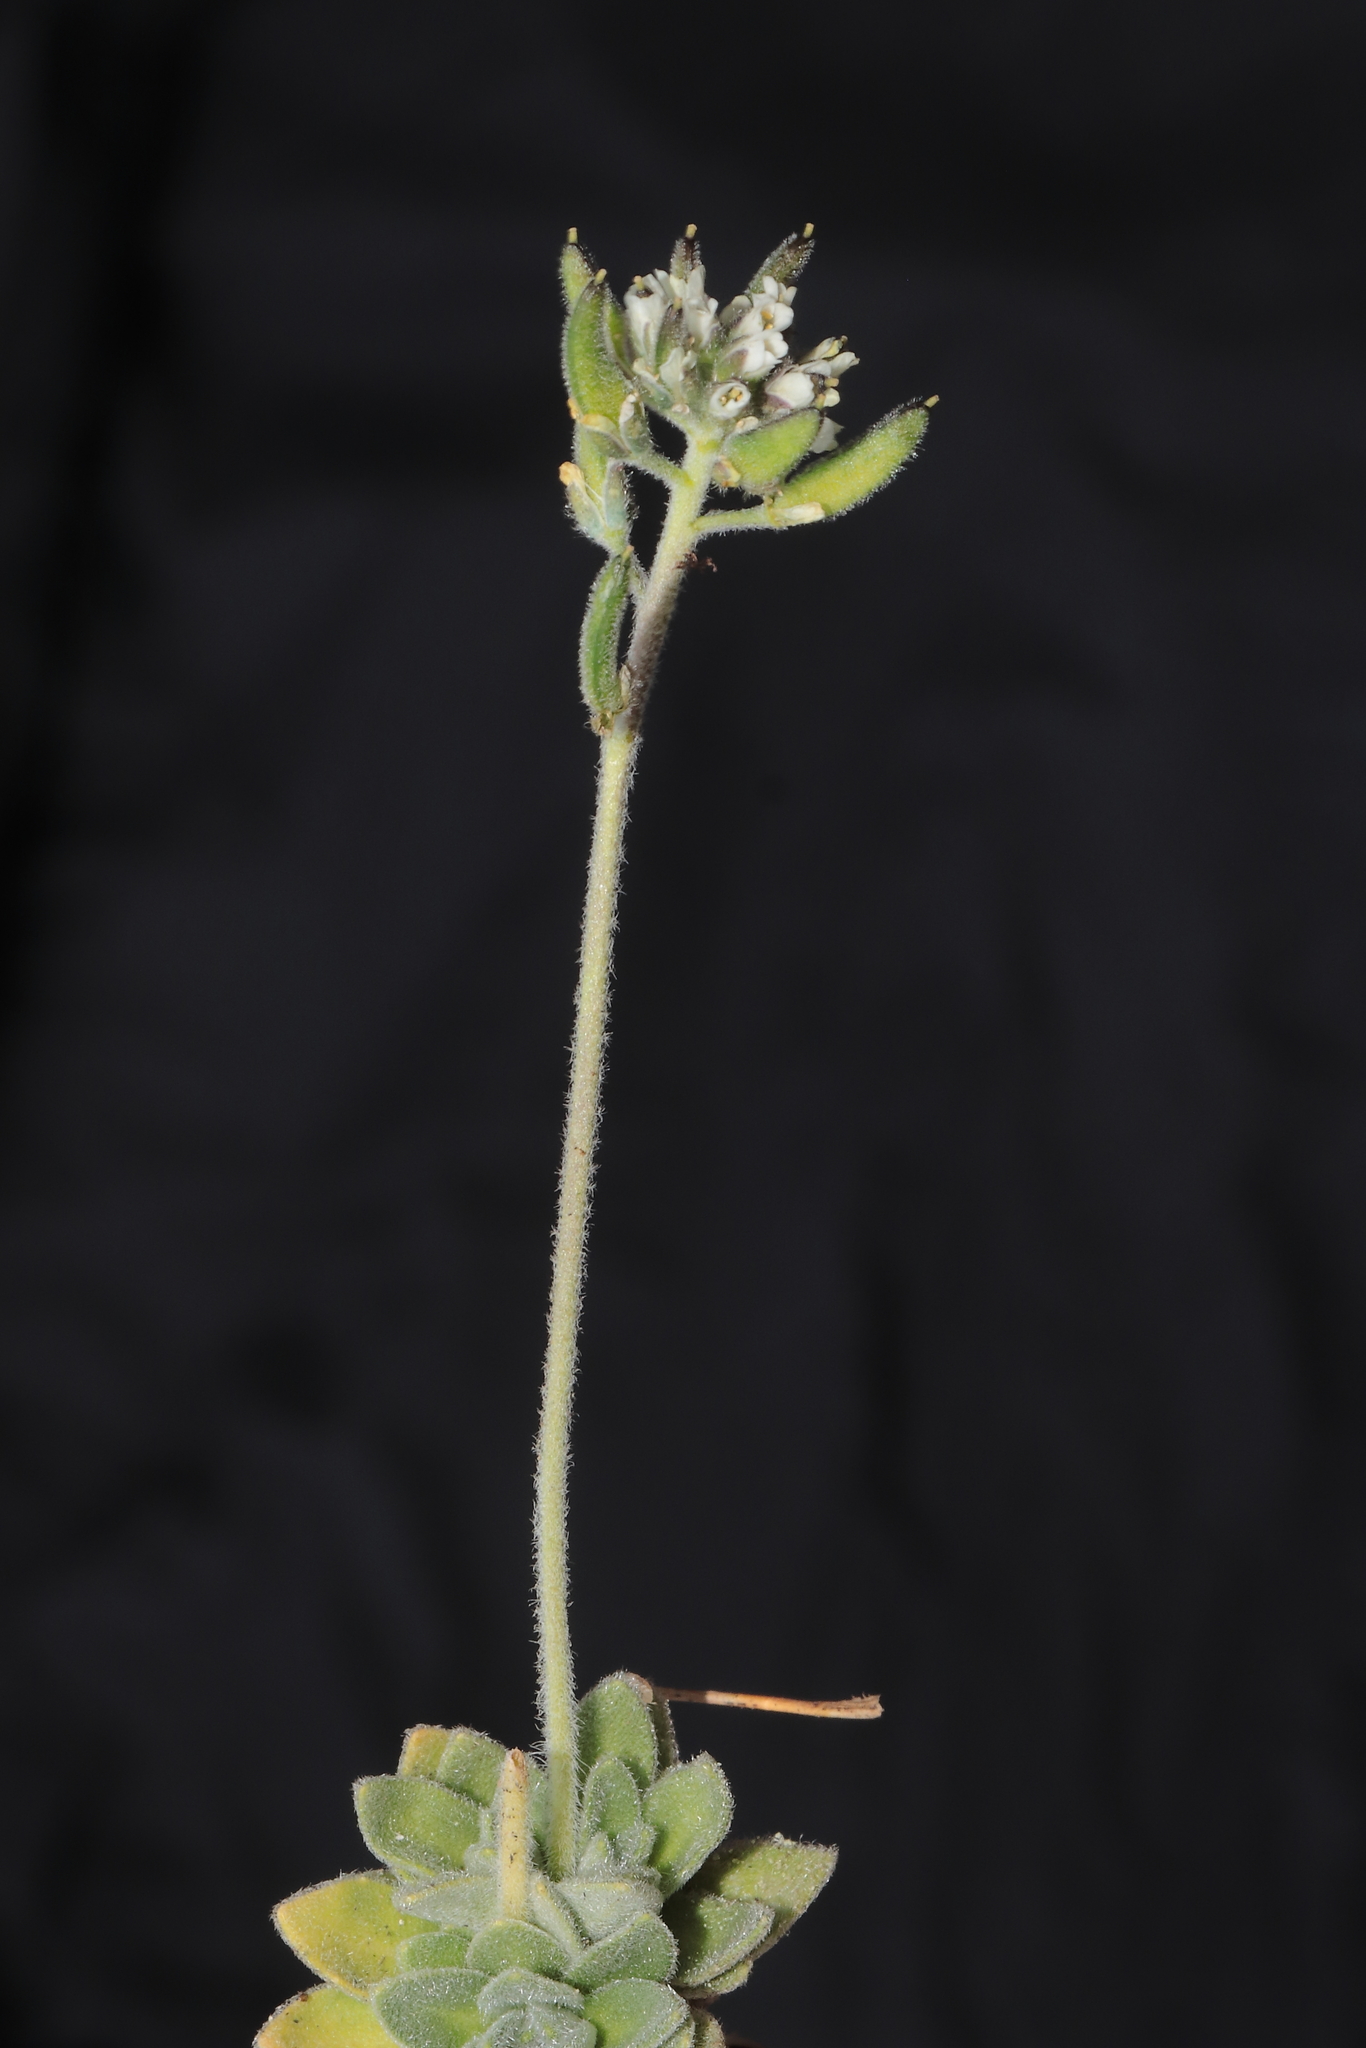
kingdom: Plantae
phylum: Tracheophyta
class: Magnoliopsida
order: Brassicales
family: Brassicaceae
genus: Draba
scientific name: Draba macleanii
